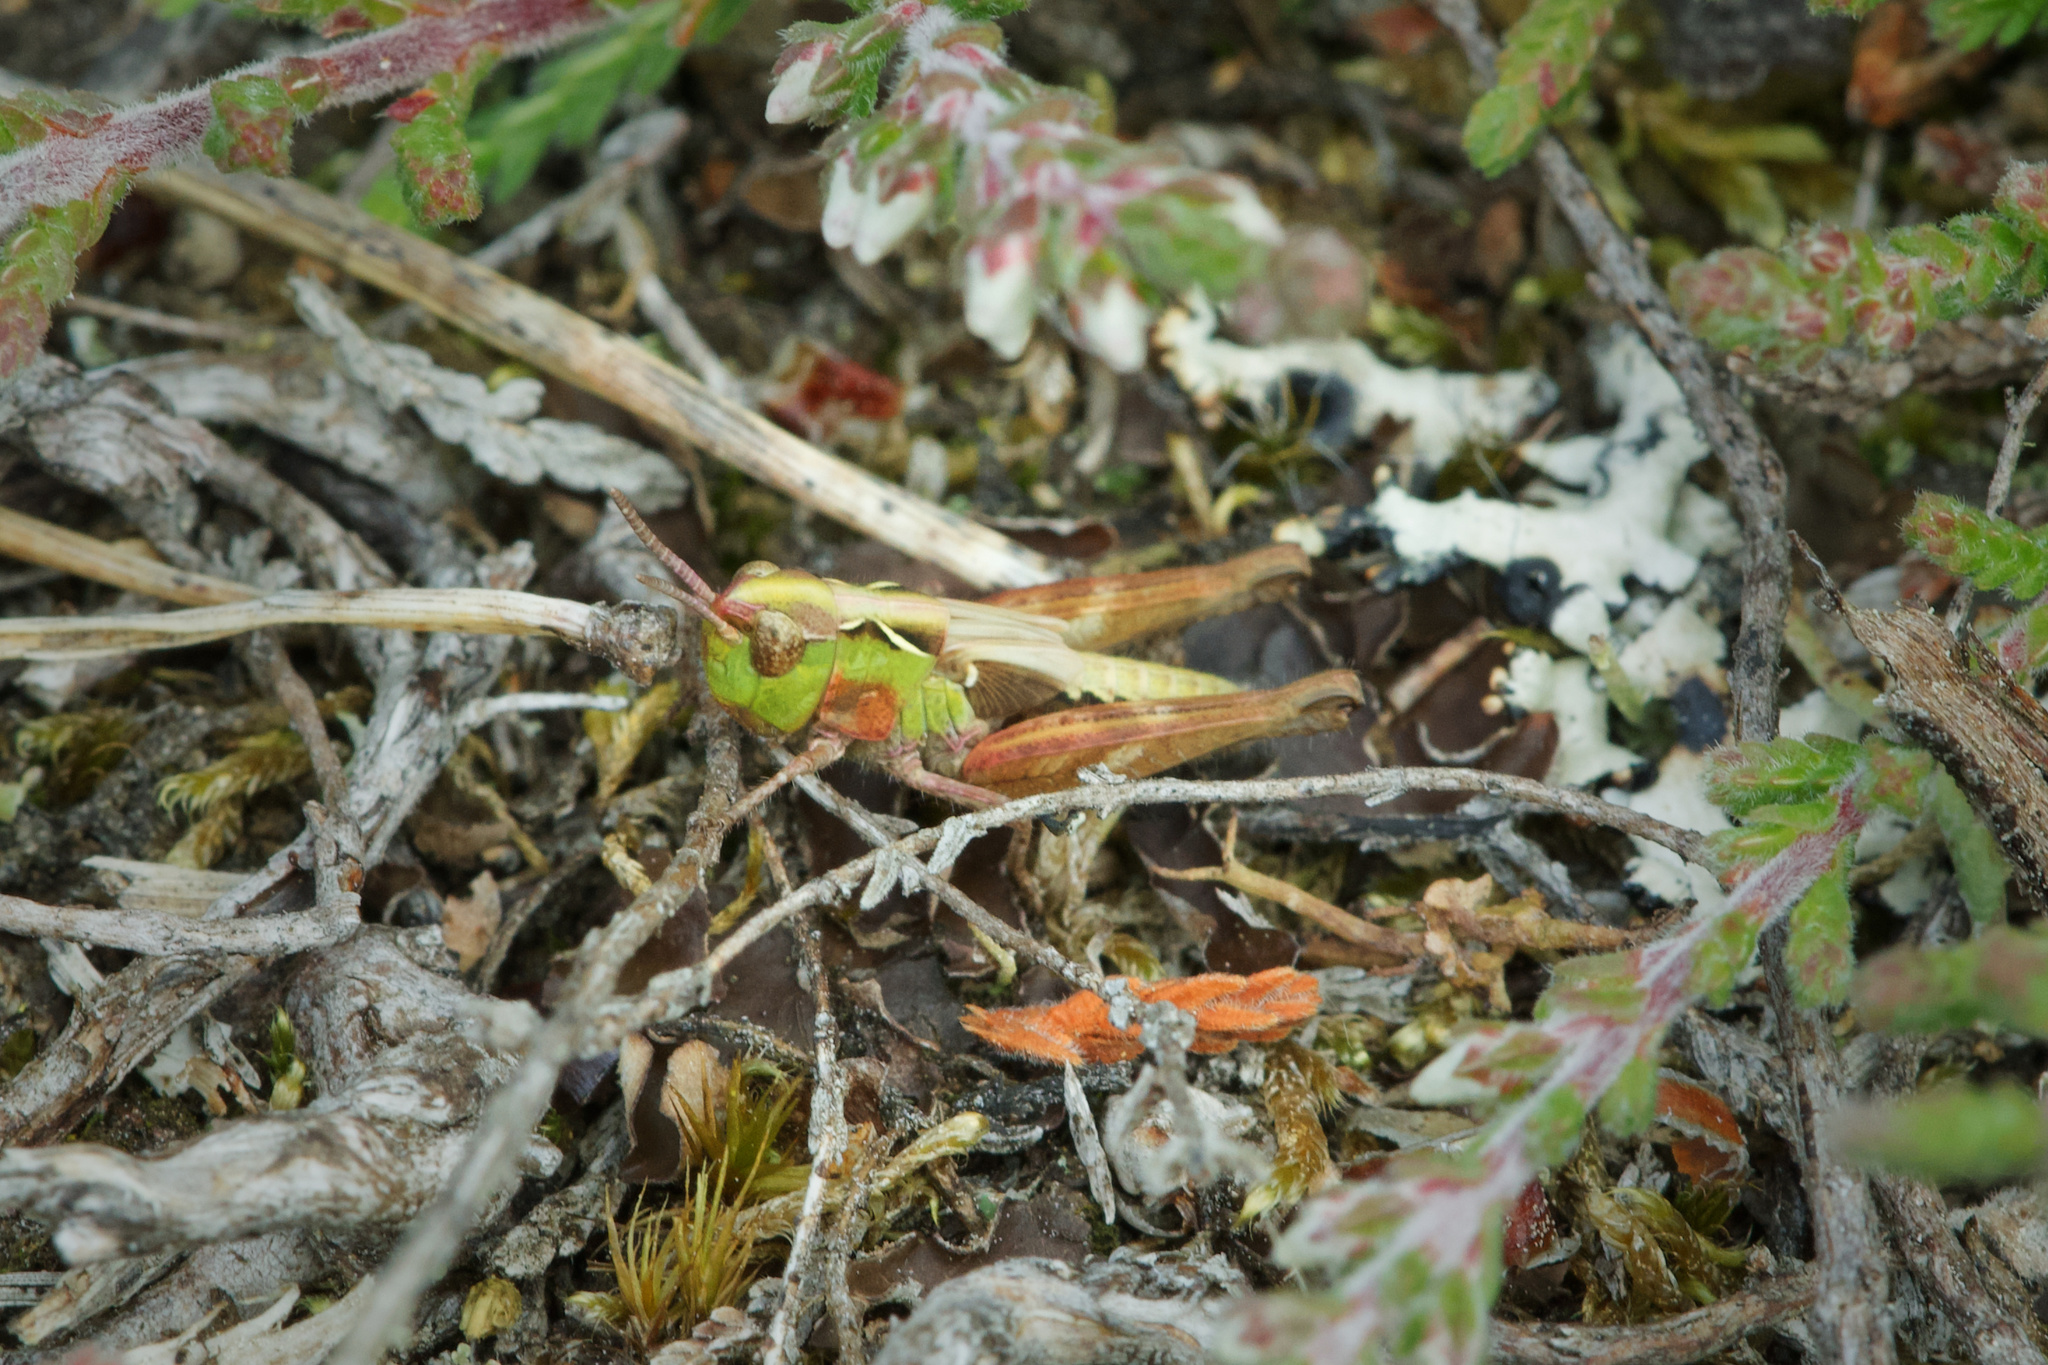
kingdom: Animalia
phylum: Arthropoda
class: Insecta
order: Orthoptera
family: Acrididae
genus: Myrmeleotettix
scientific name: Myrmeleotettix maculatus
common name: Mottled grasshopper
